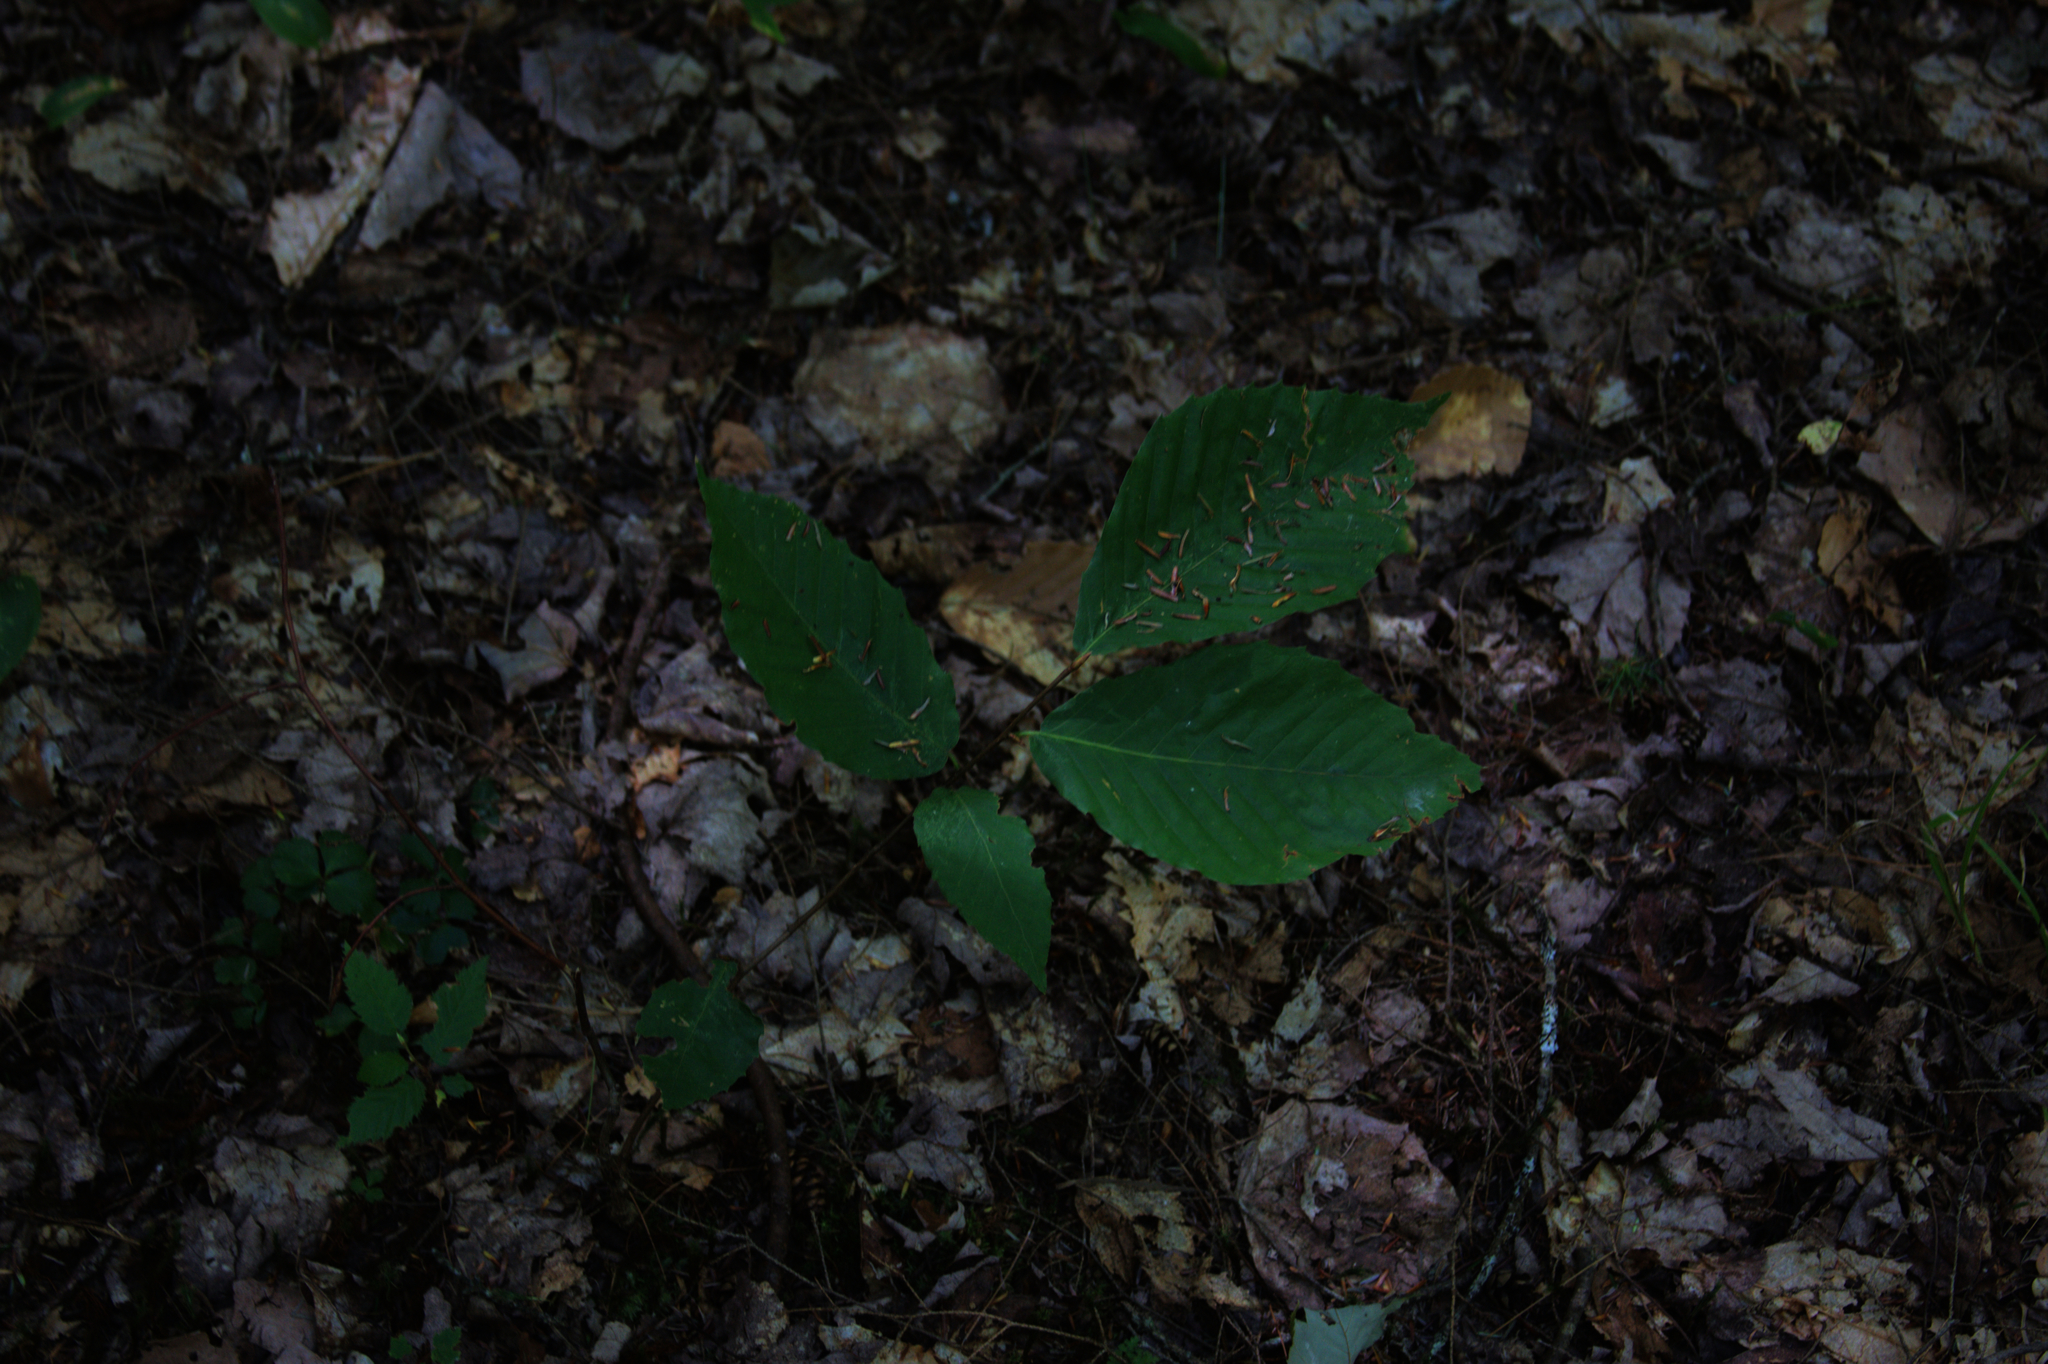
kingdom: Plantae
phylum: Tracheophyta
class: Magnoliopsida
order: Fagales
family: Fagaceae
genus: Fagus
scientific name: Fagus grandifolia
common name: American beech
